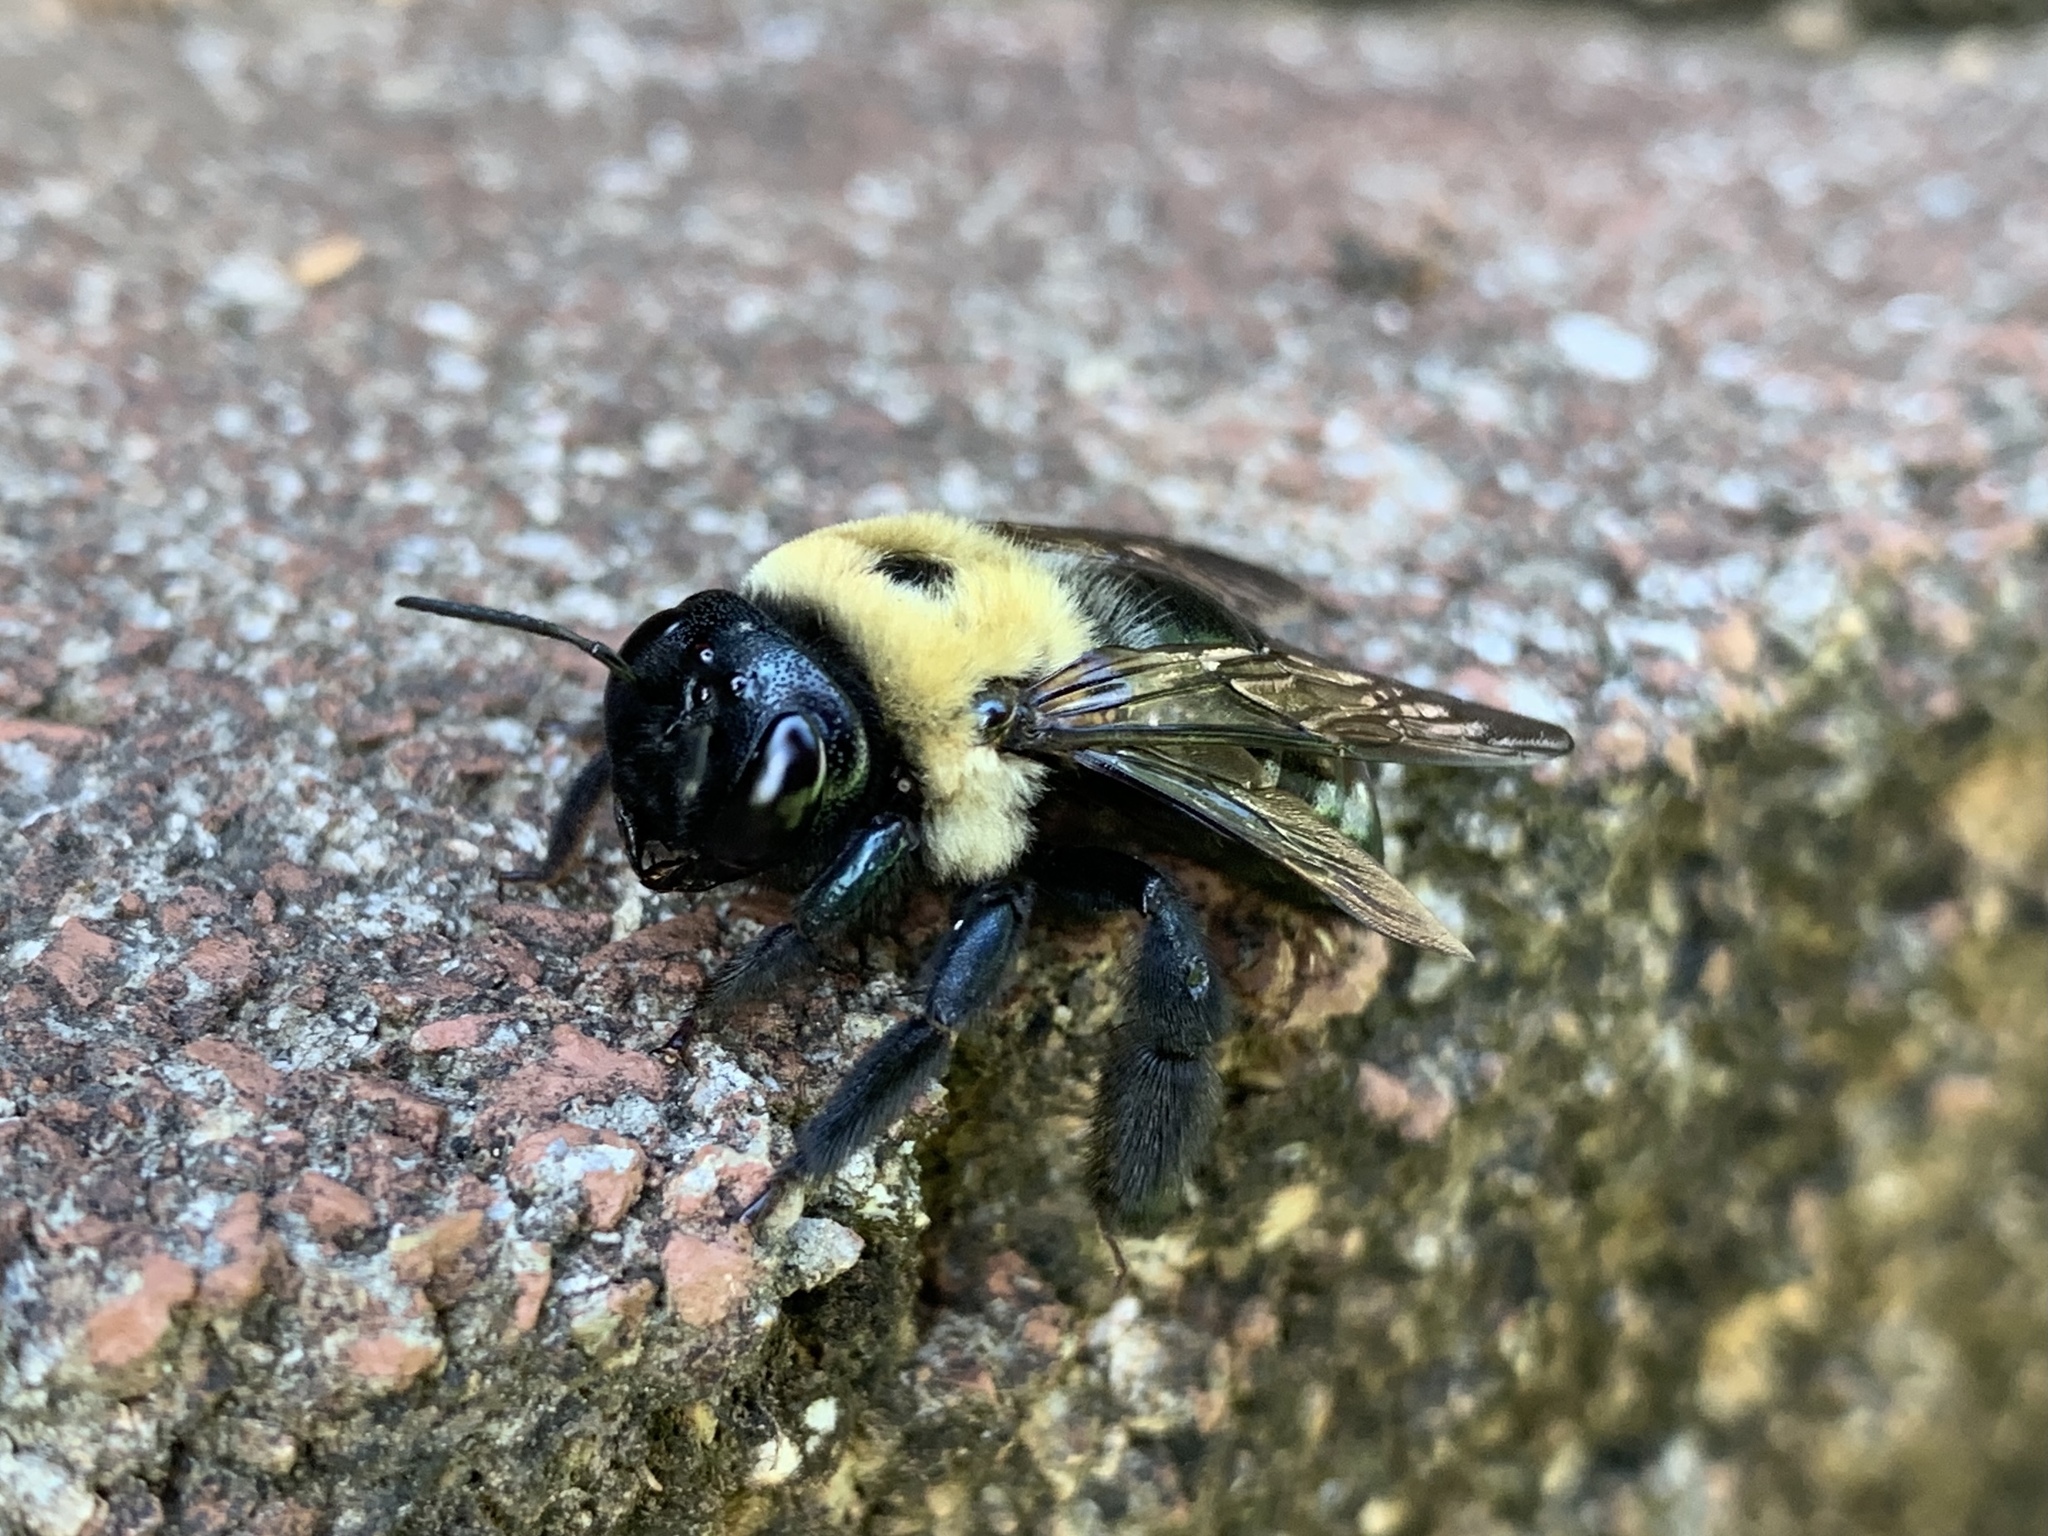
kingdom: Animalia
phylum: Arthropoda
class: Insecta
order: Hymenoptera
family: Apidae
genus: Xylocopa
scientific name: Xylocopa virginica
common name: Carpenter bee
